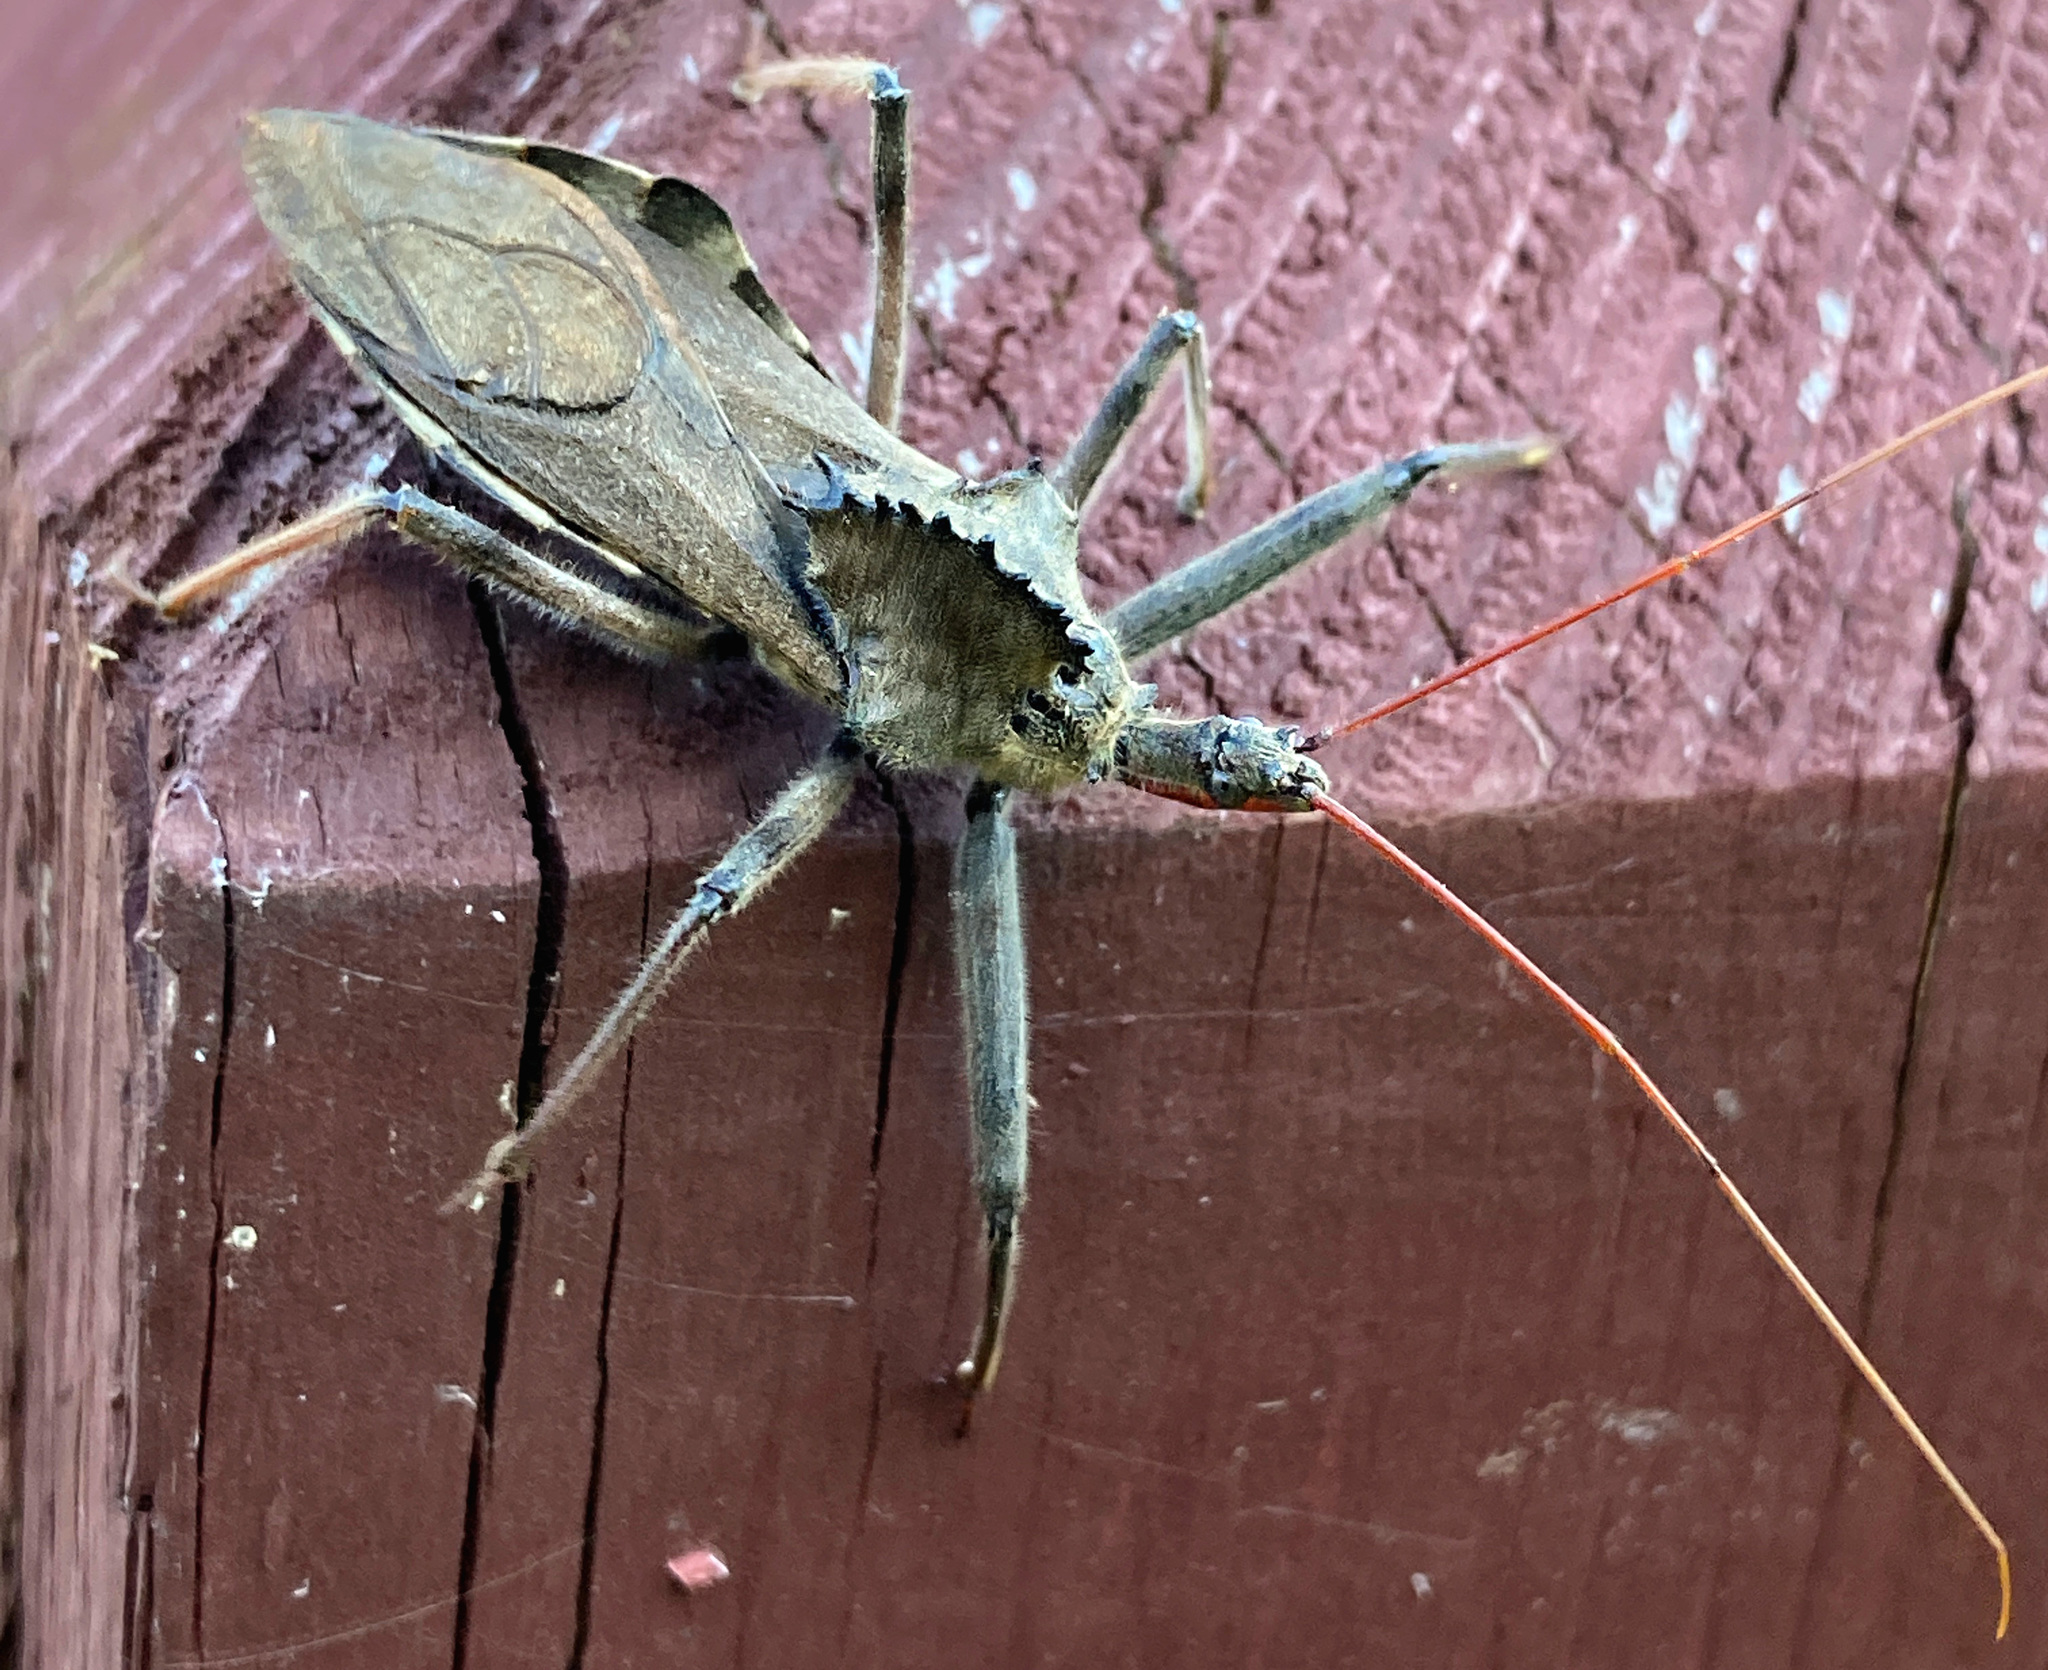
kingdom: Animalia
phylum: Arthropoda
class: Insecta
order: Hemiptera
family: Reduviidae
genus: Arilus
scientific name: Arilus cristatus
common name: North american wheel bug
